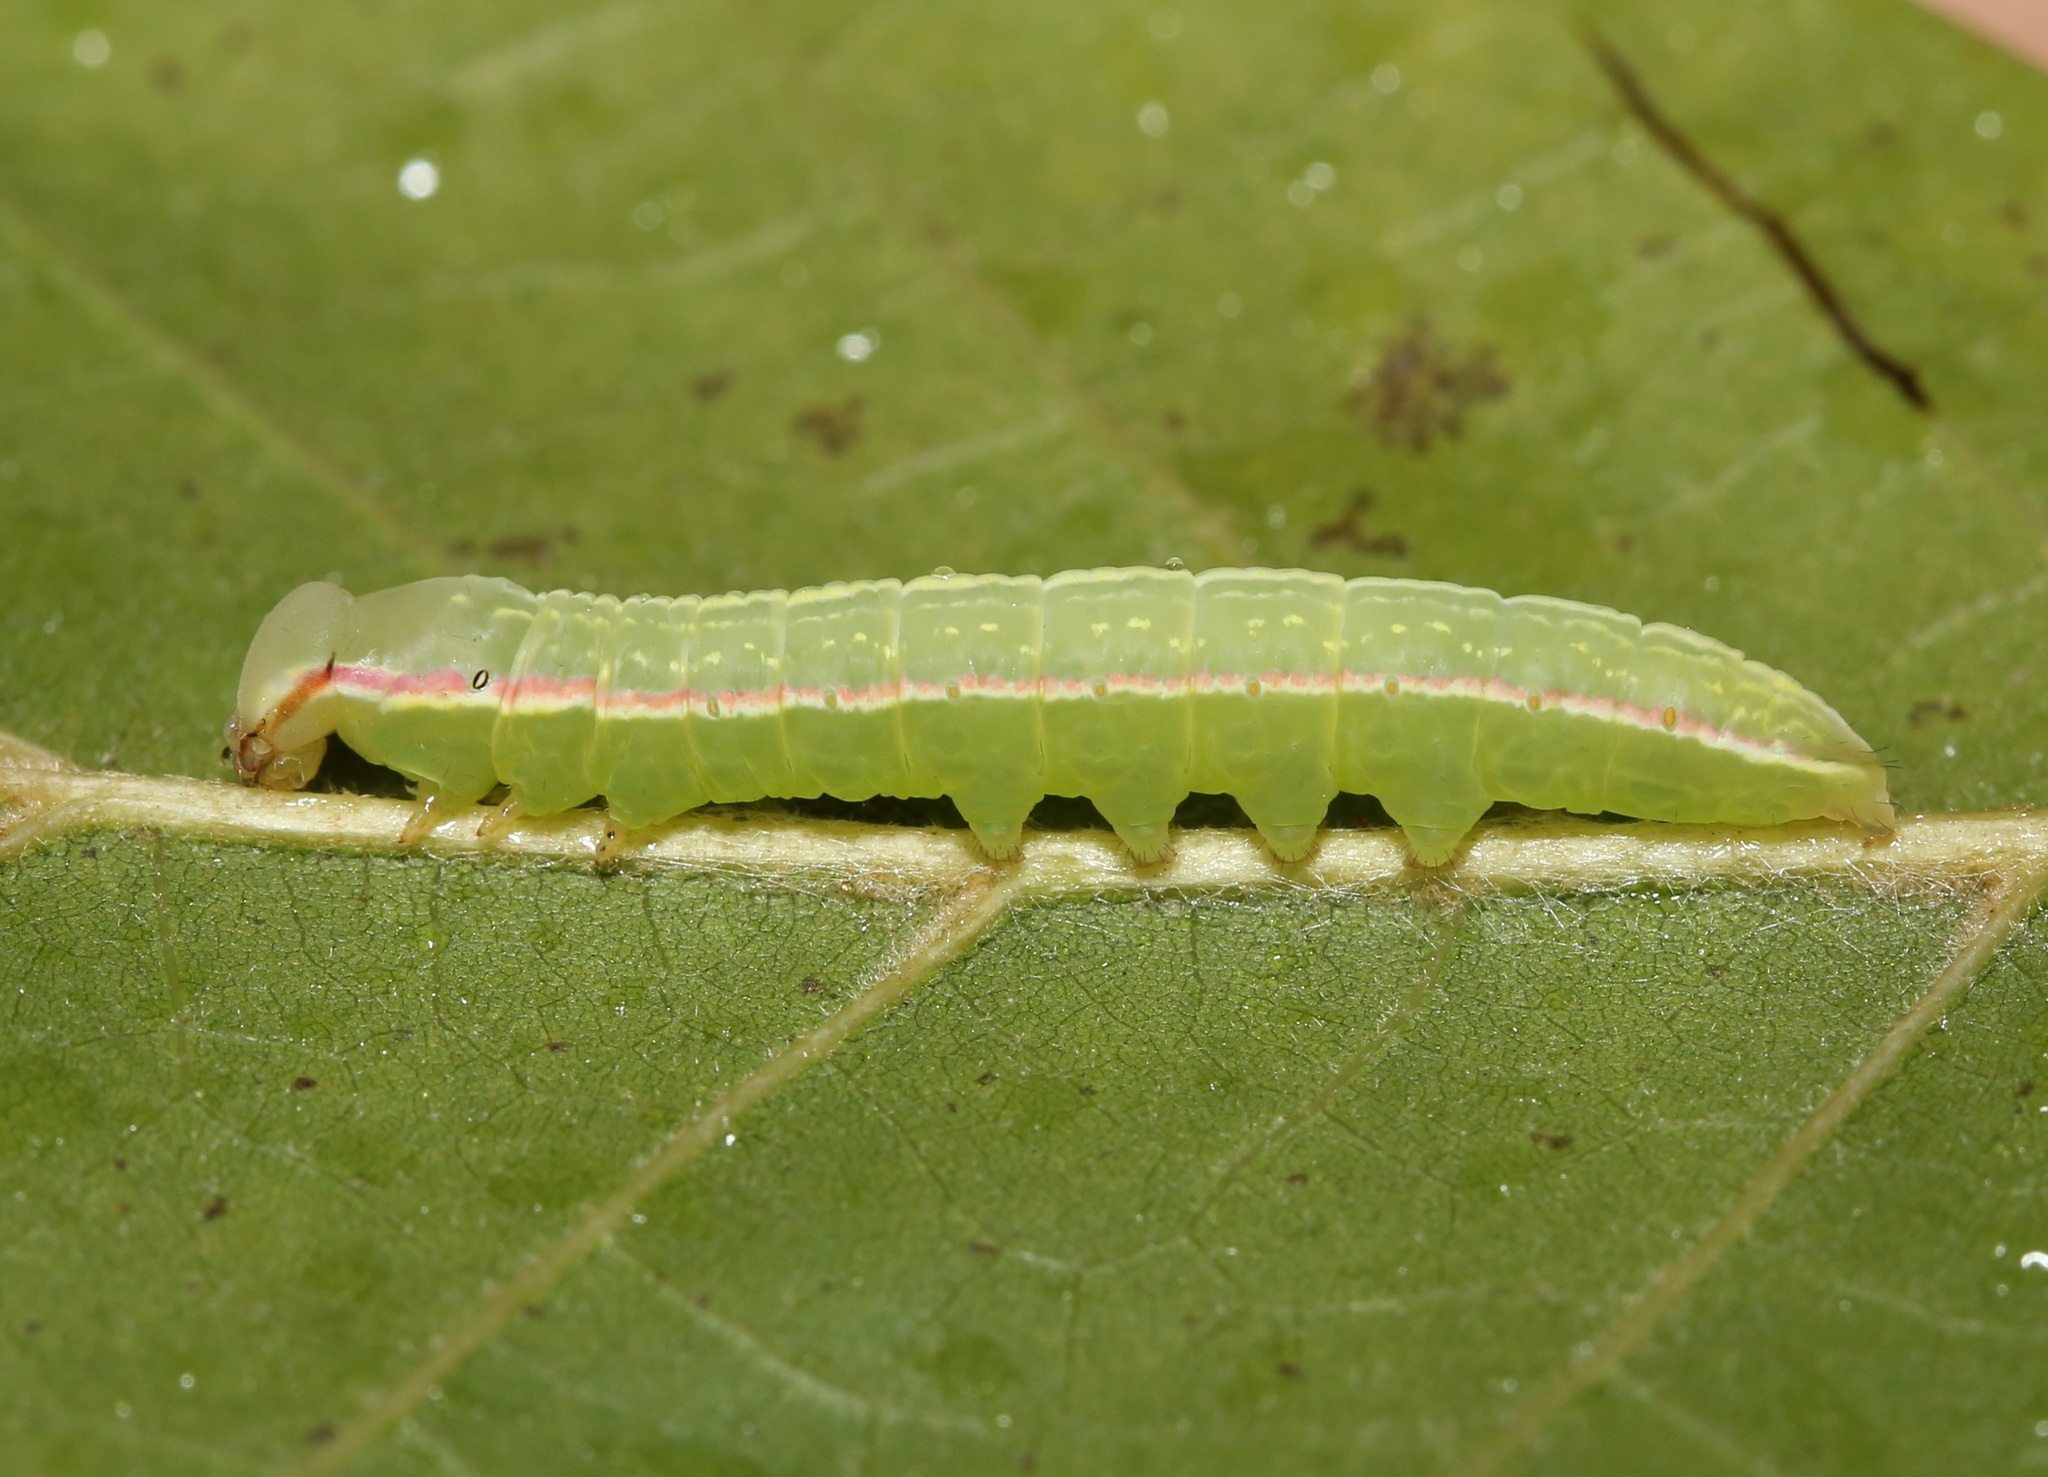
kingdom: Animalia
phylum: Arthropoda
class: Insecta
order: Lepidoptera
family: Notodontidae
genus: Peridea
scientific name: Peridea angulosa
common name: Angulose prominent
